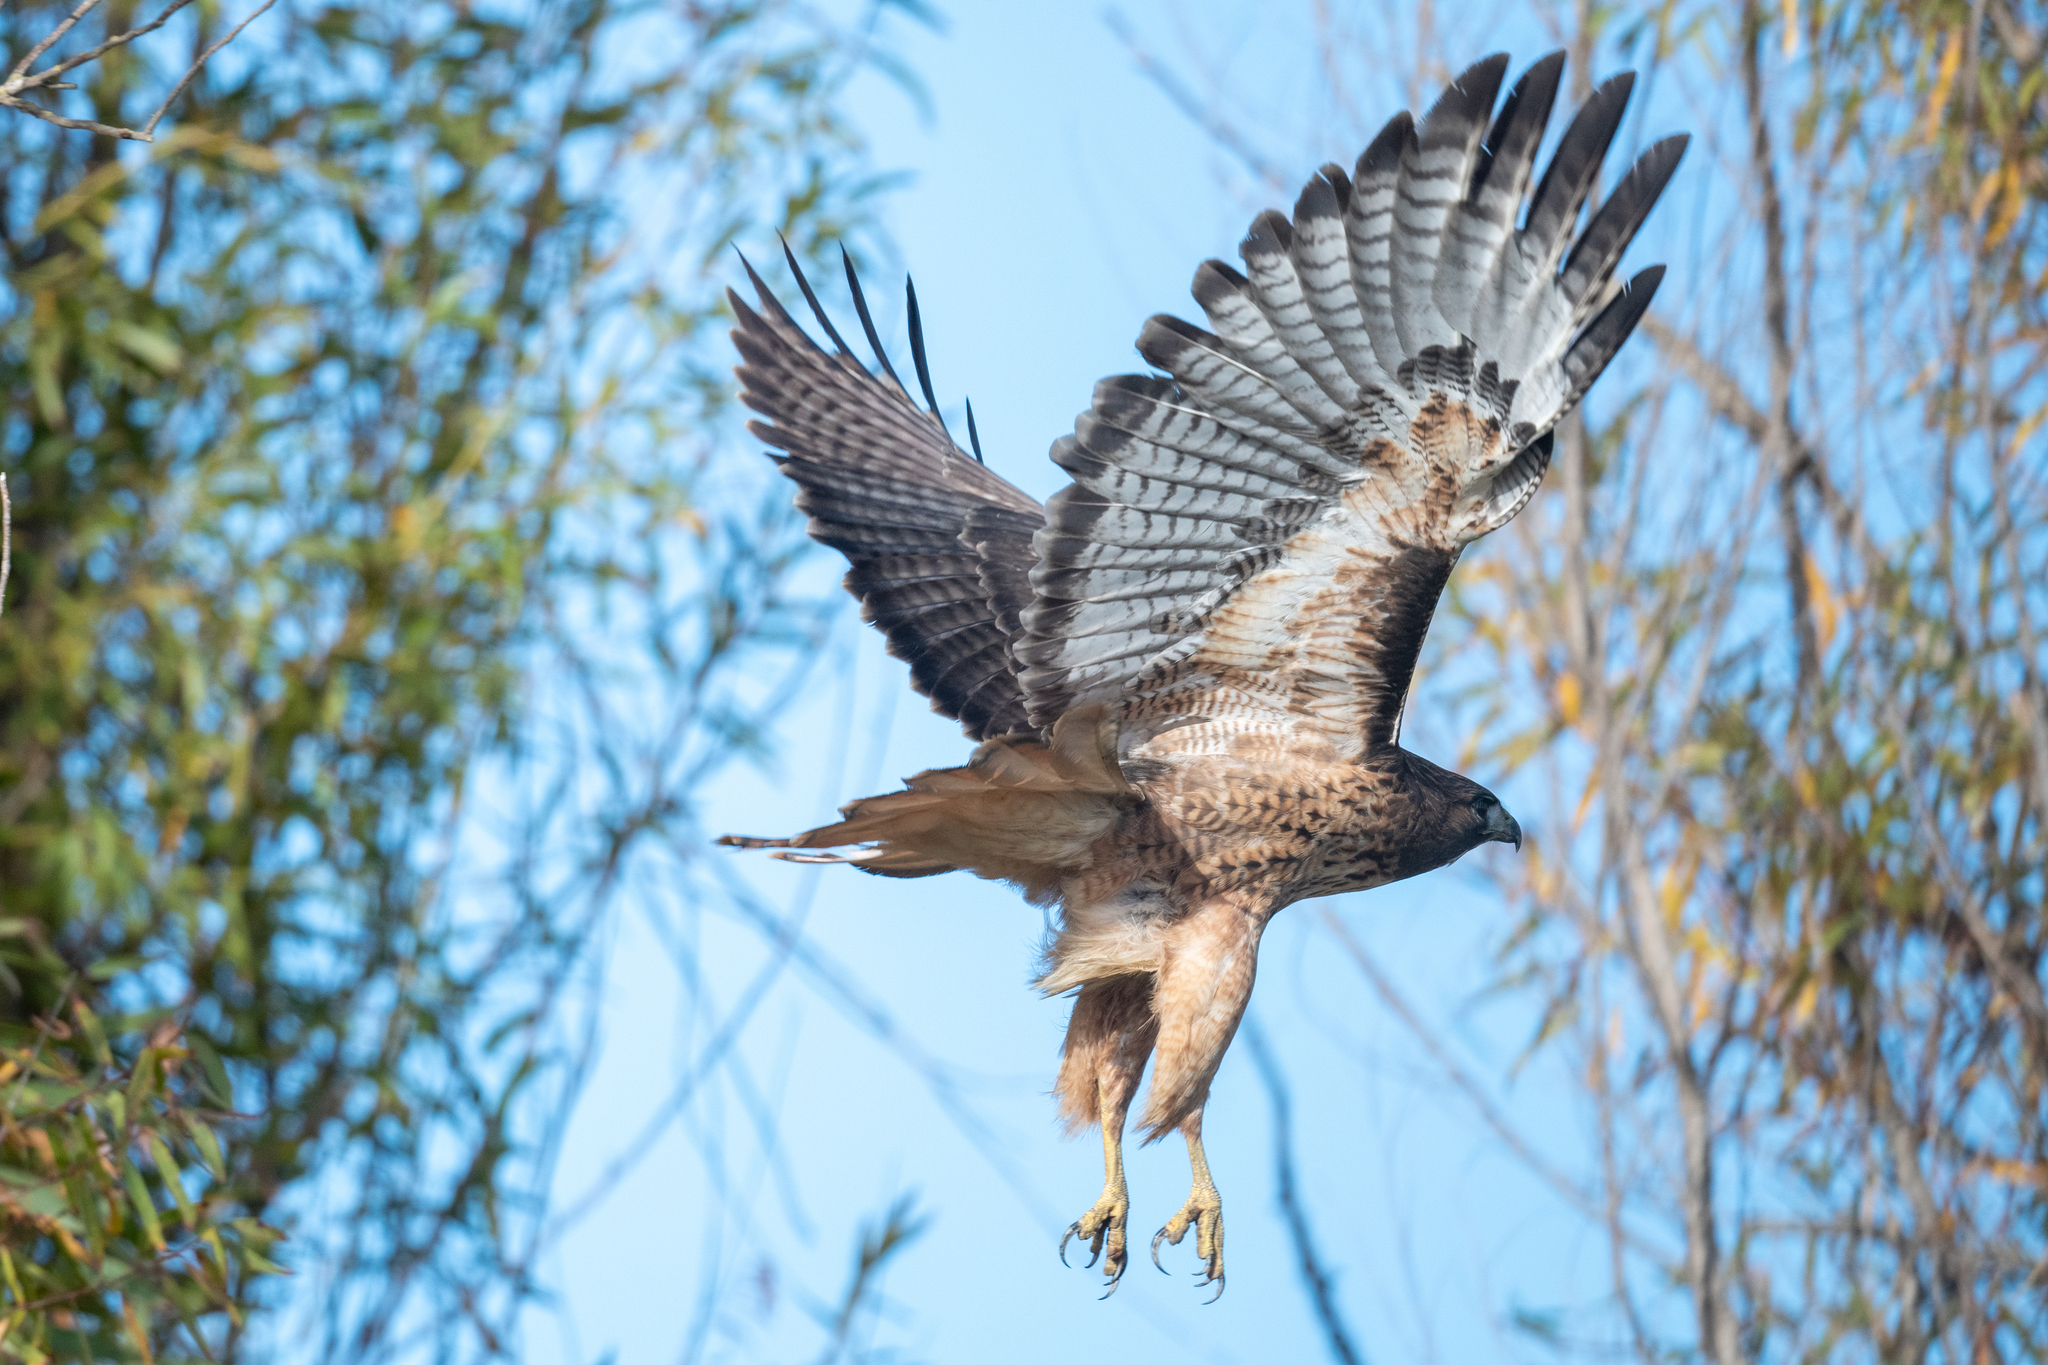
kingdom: Animalia
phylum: Chordata
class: Aves
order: Accipitriformes
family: Accipitridae
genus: Buteo
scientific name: Buteo jamaicensis
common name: Red-tailed hawk
